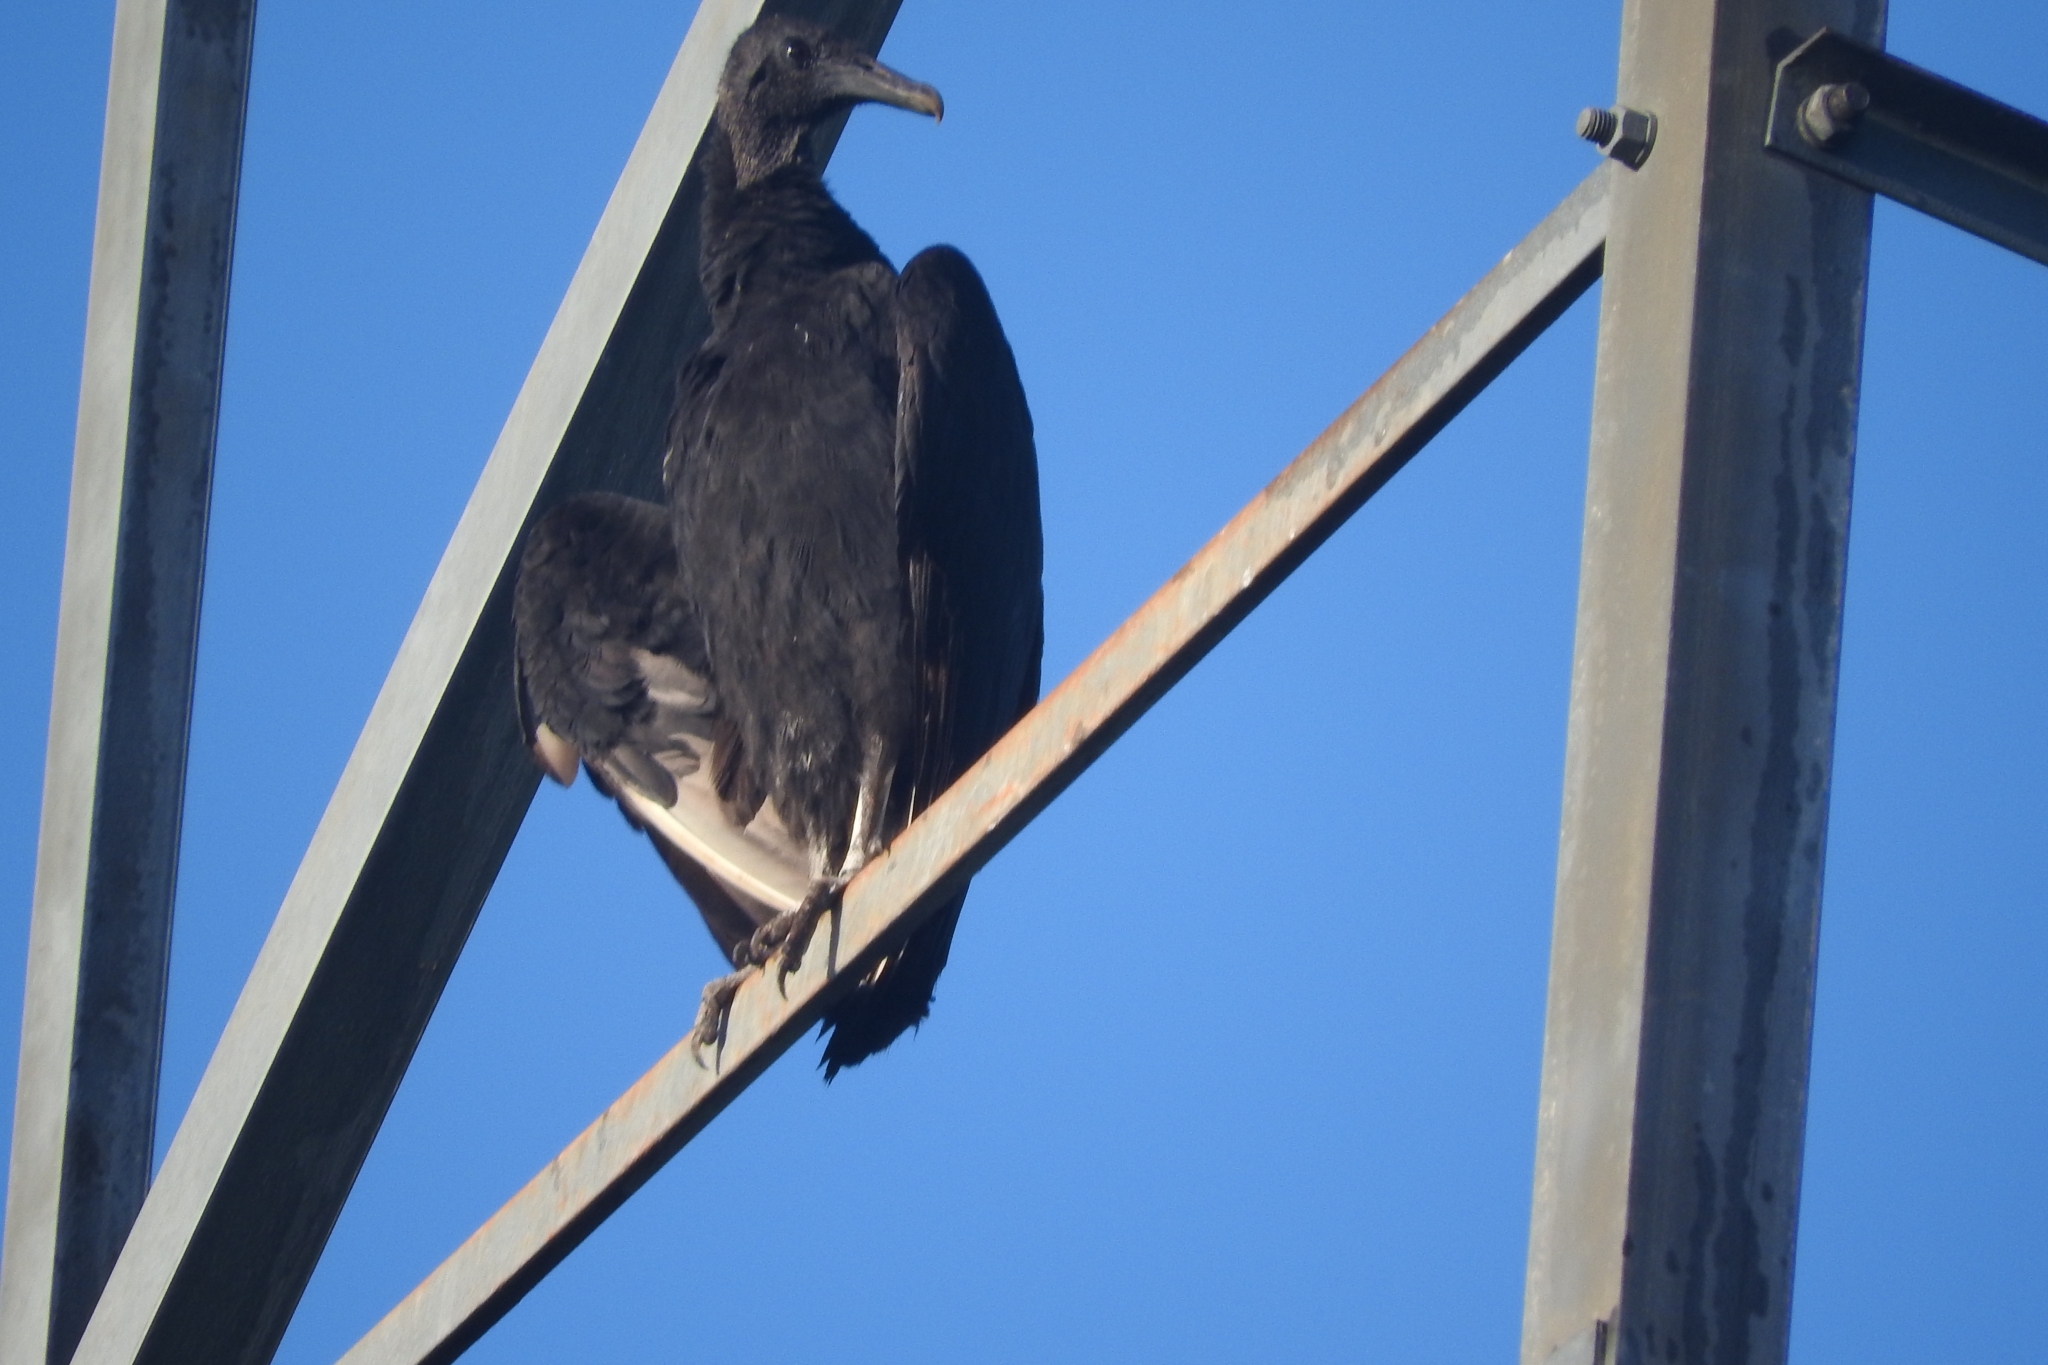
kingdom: Animalia
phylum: Chordata
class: Aves
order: Accipitriformes
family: Cathartidae
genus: Coragyps
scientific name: Coragyps atratus
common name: Black vulture
